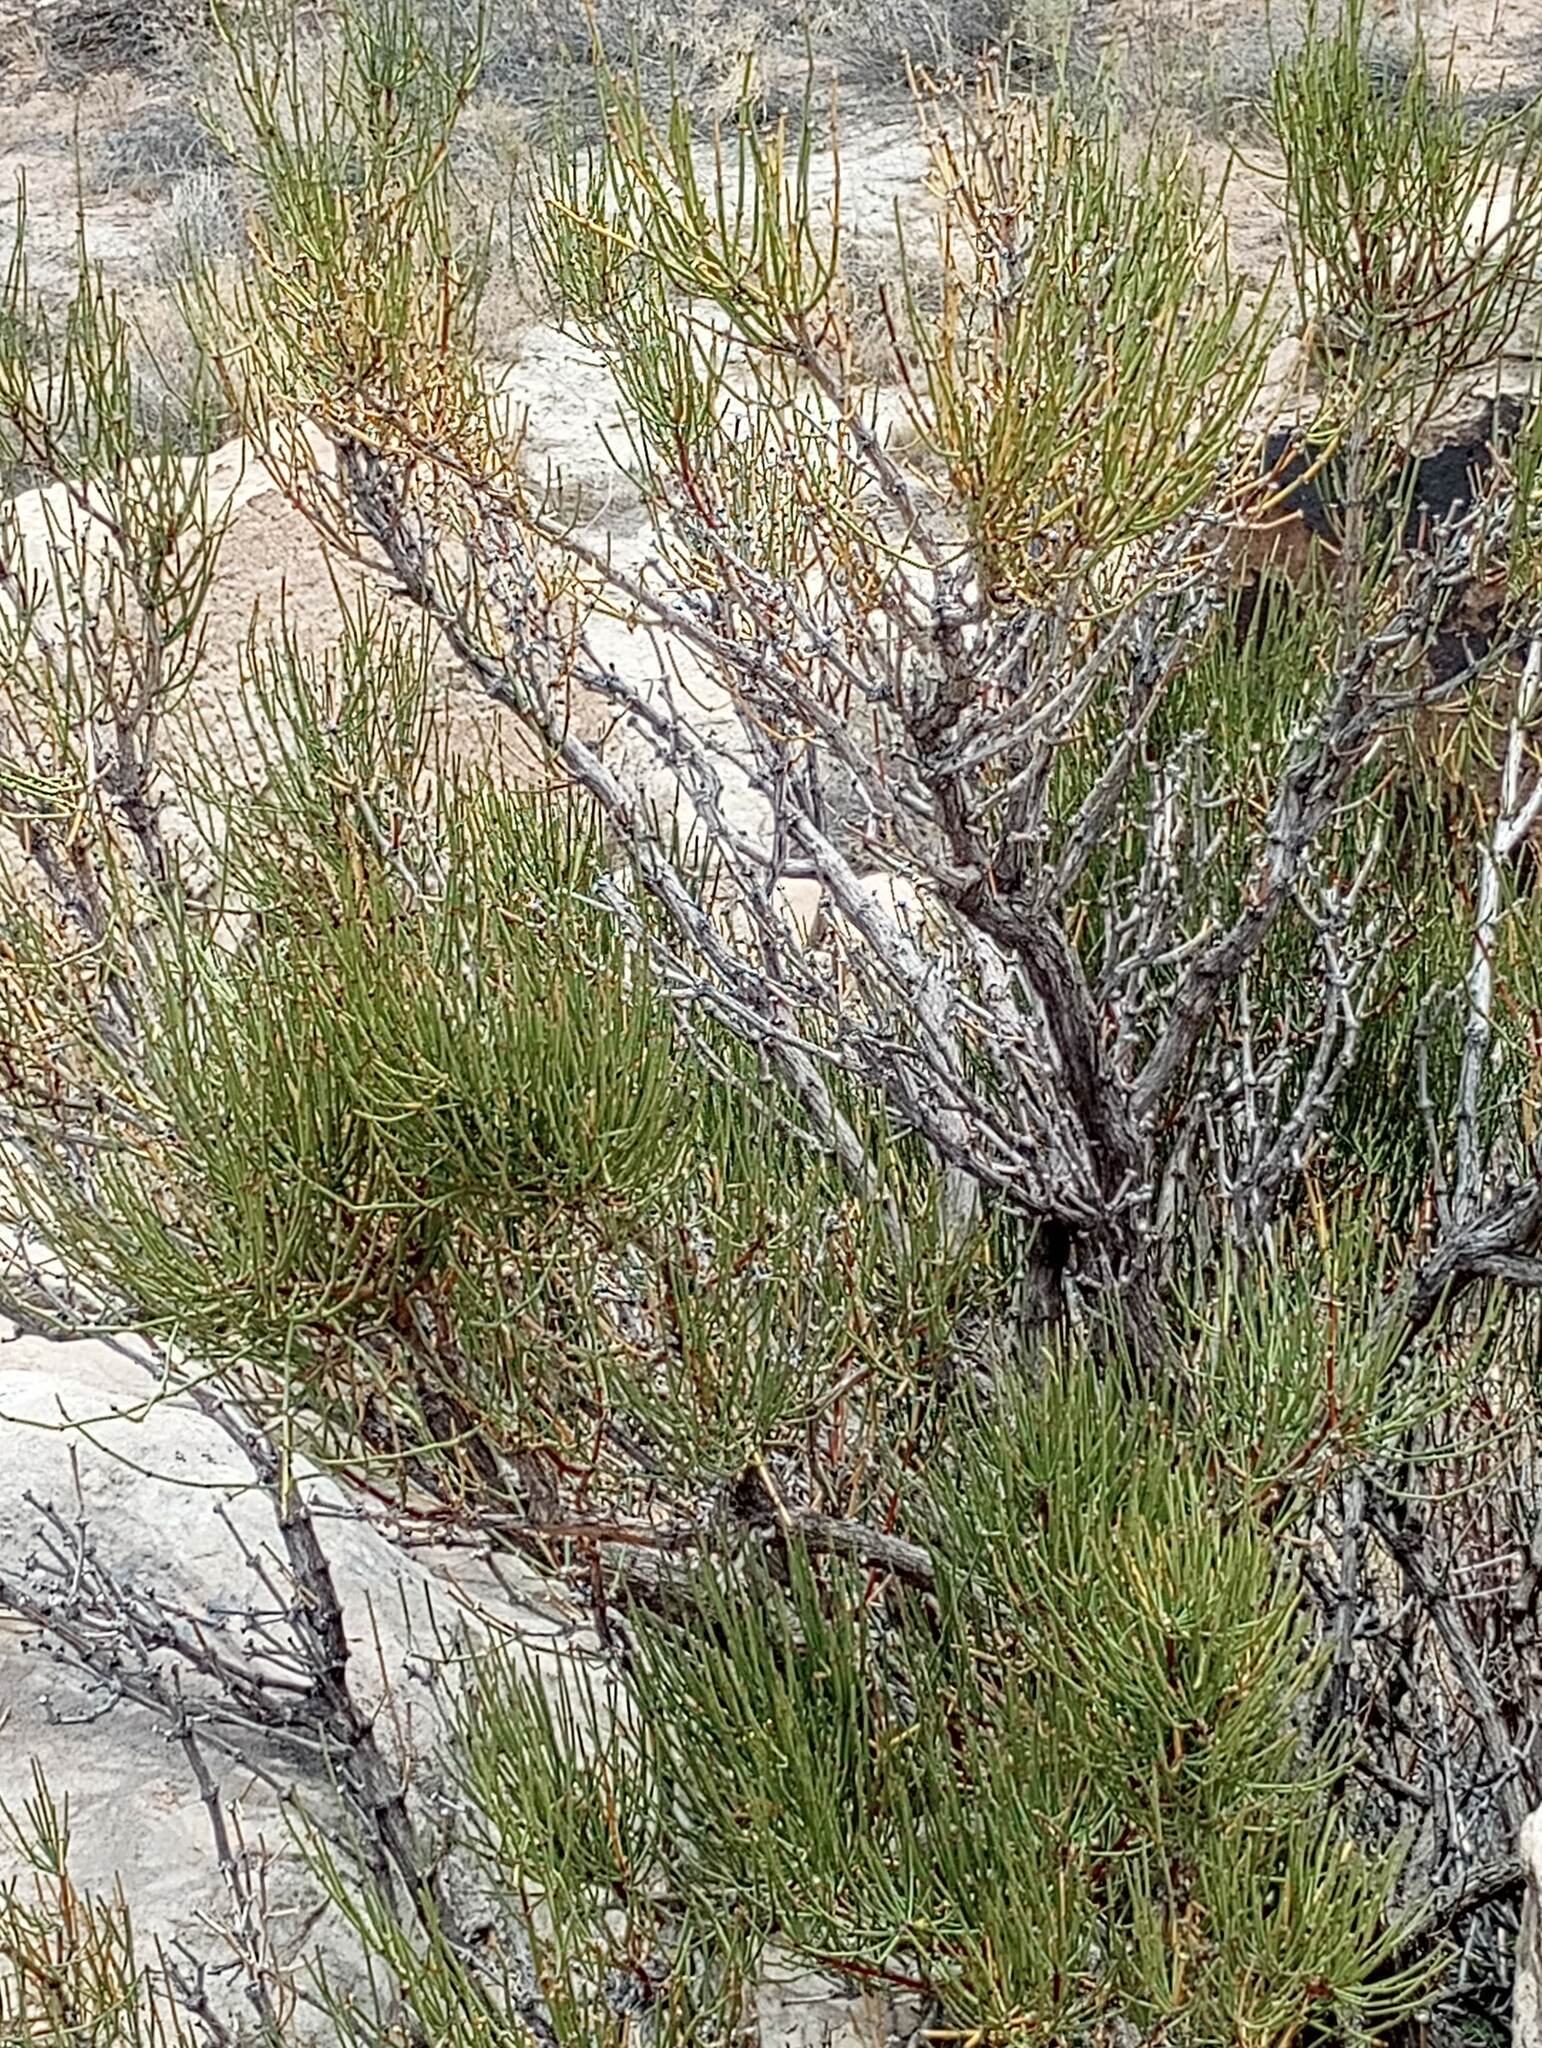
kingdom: Plantae
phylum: Tracheophyta
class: Gnetopsida
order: Ephedrales
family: Ephedraceae
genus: Ephedra
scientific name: Ephedra viridis
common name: Green ephedra
